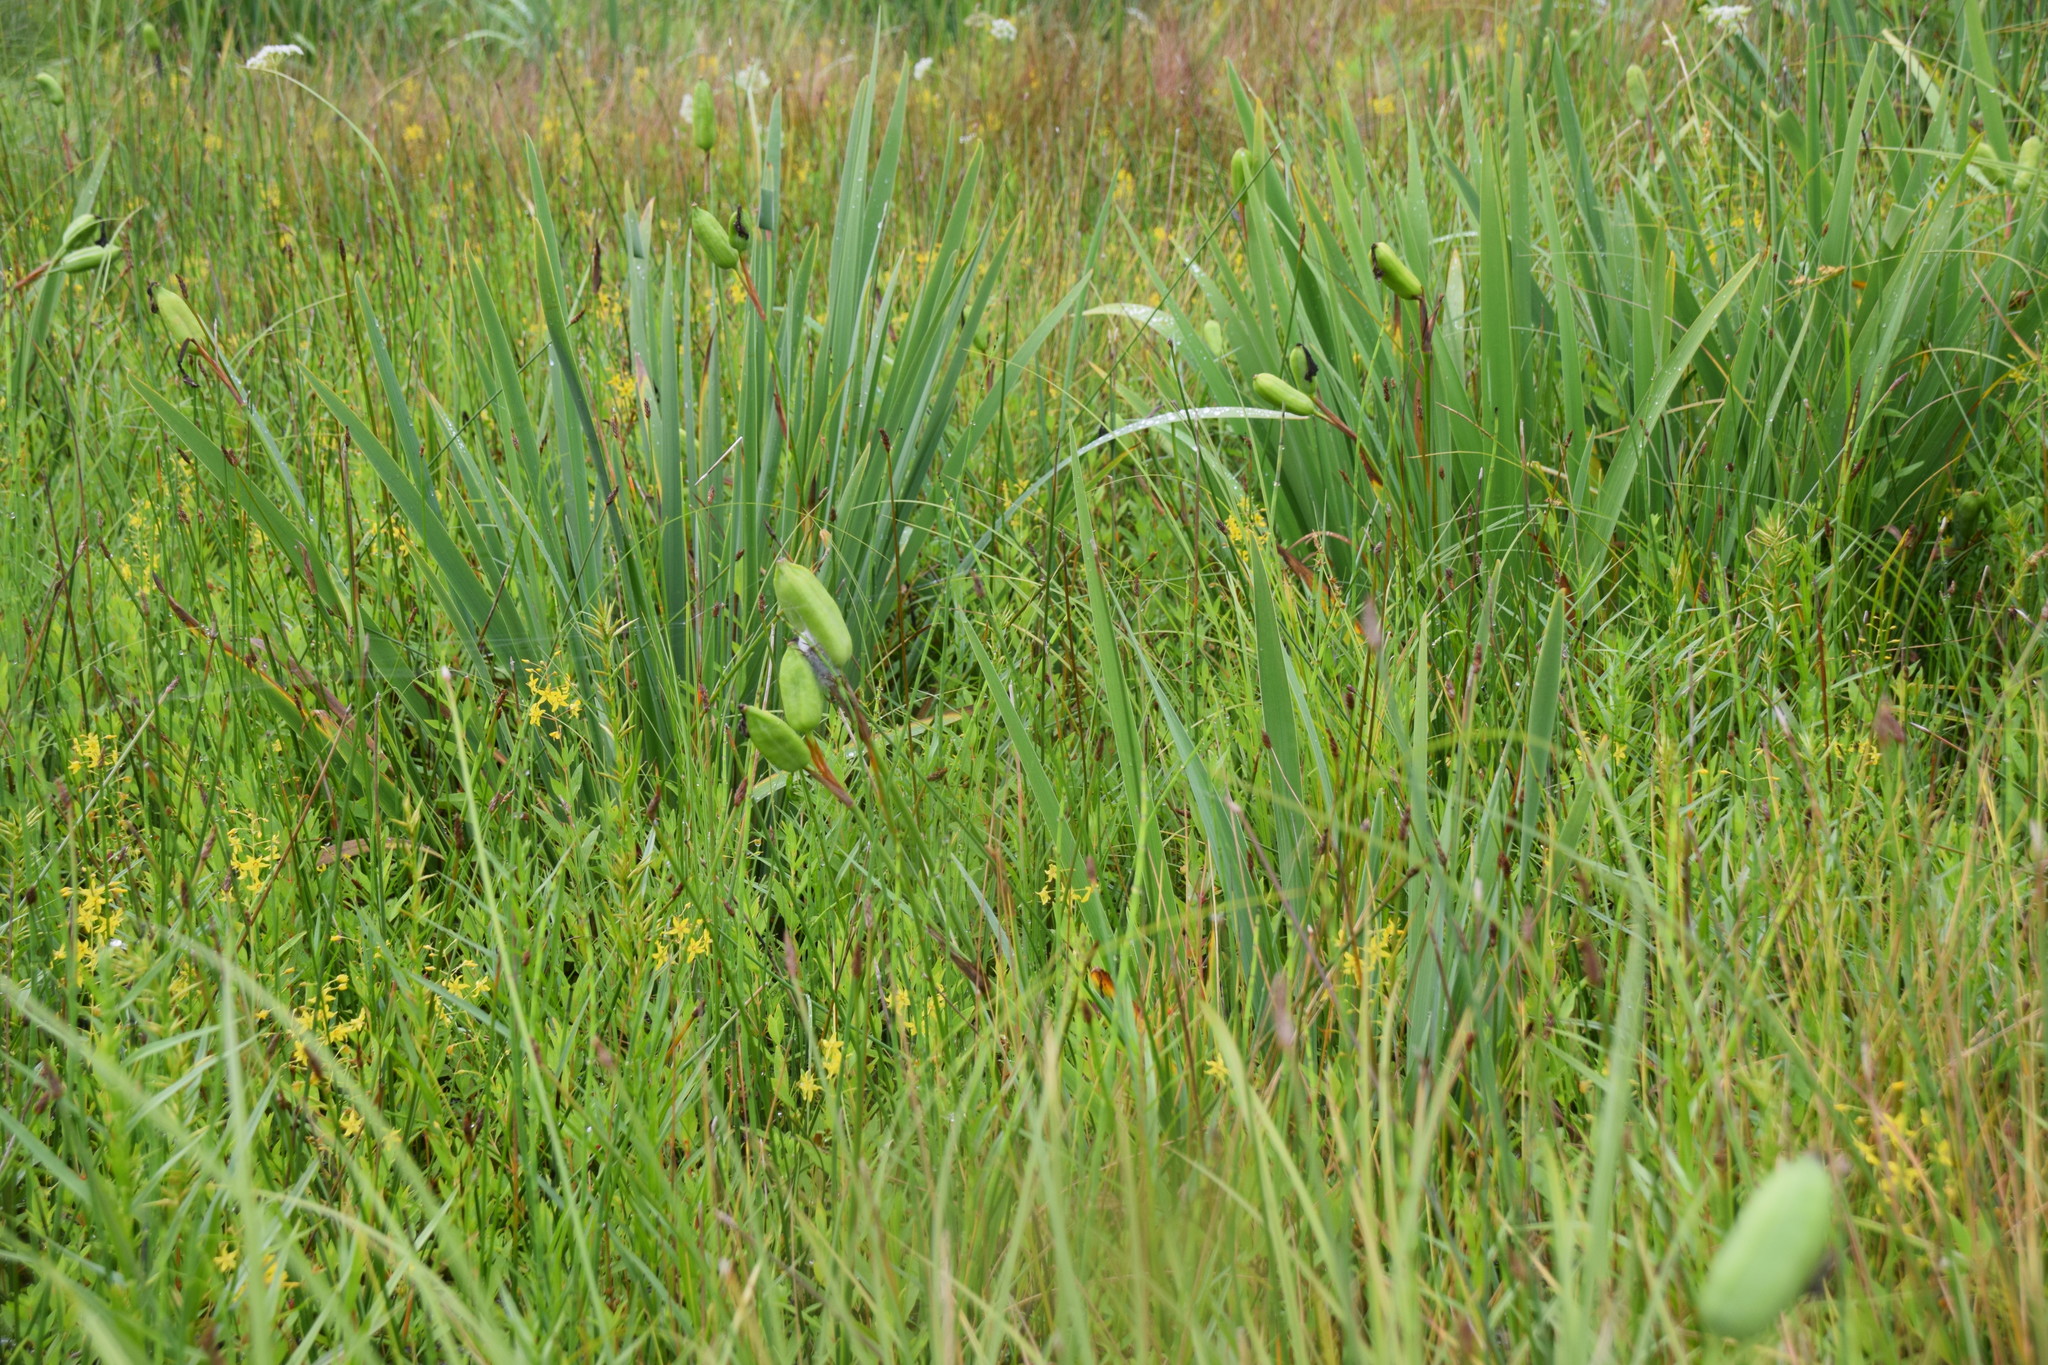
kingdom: Plantae
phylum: Tracheophyta
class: Liliopsida
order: Asparagales
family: Iridaceae
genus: Iris
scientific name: Iris versicolor
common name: Purple iris
